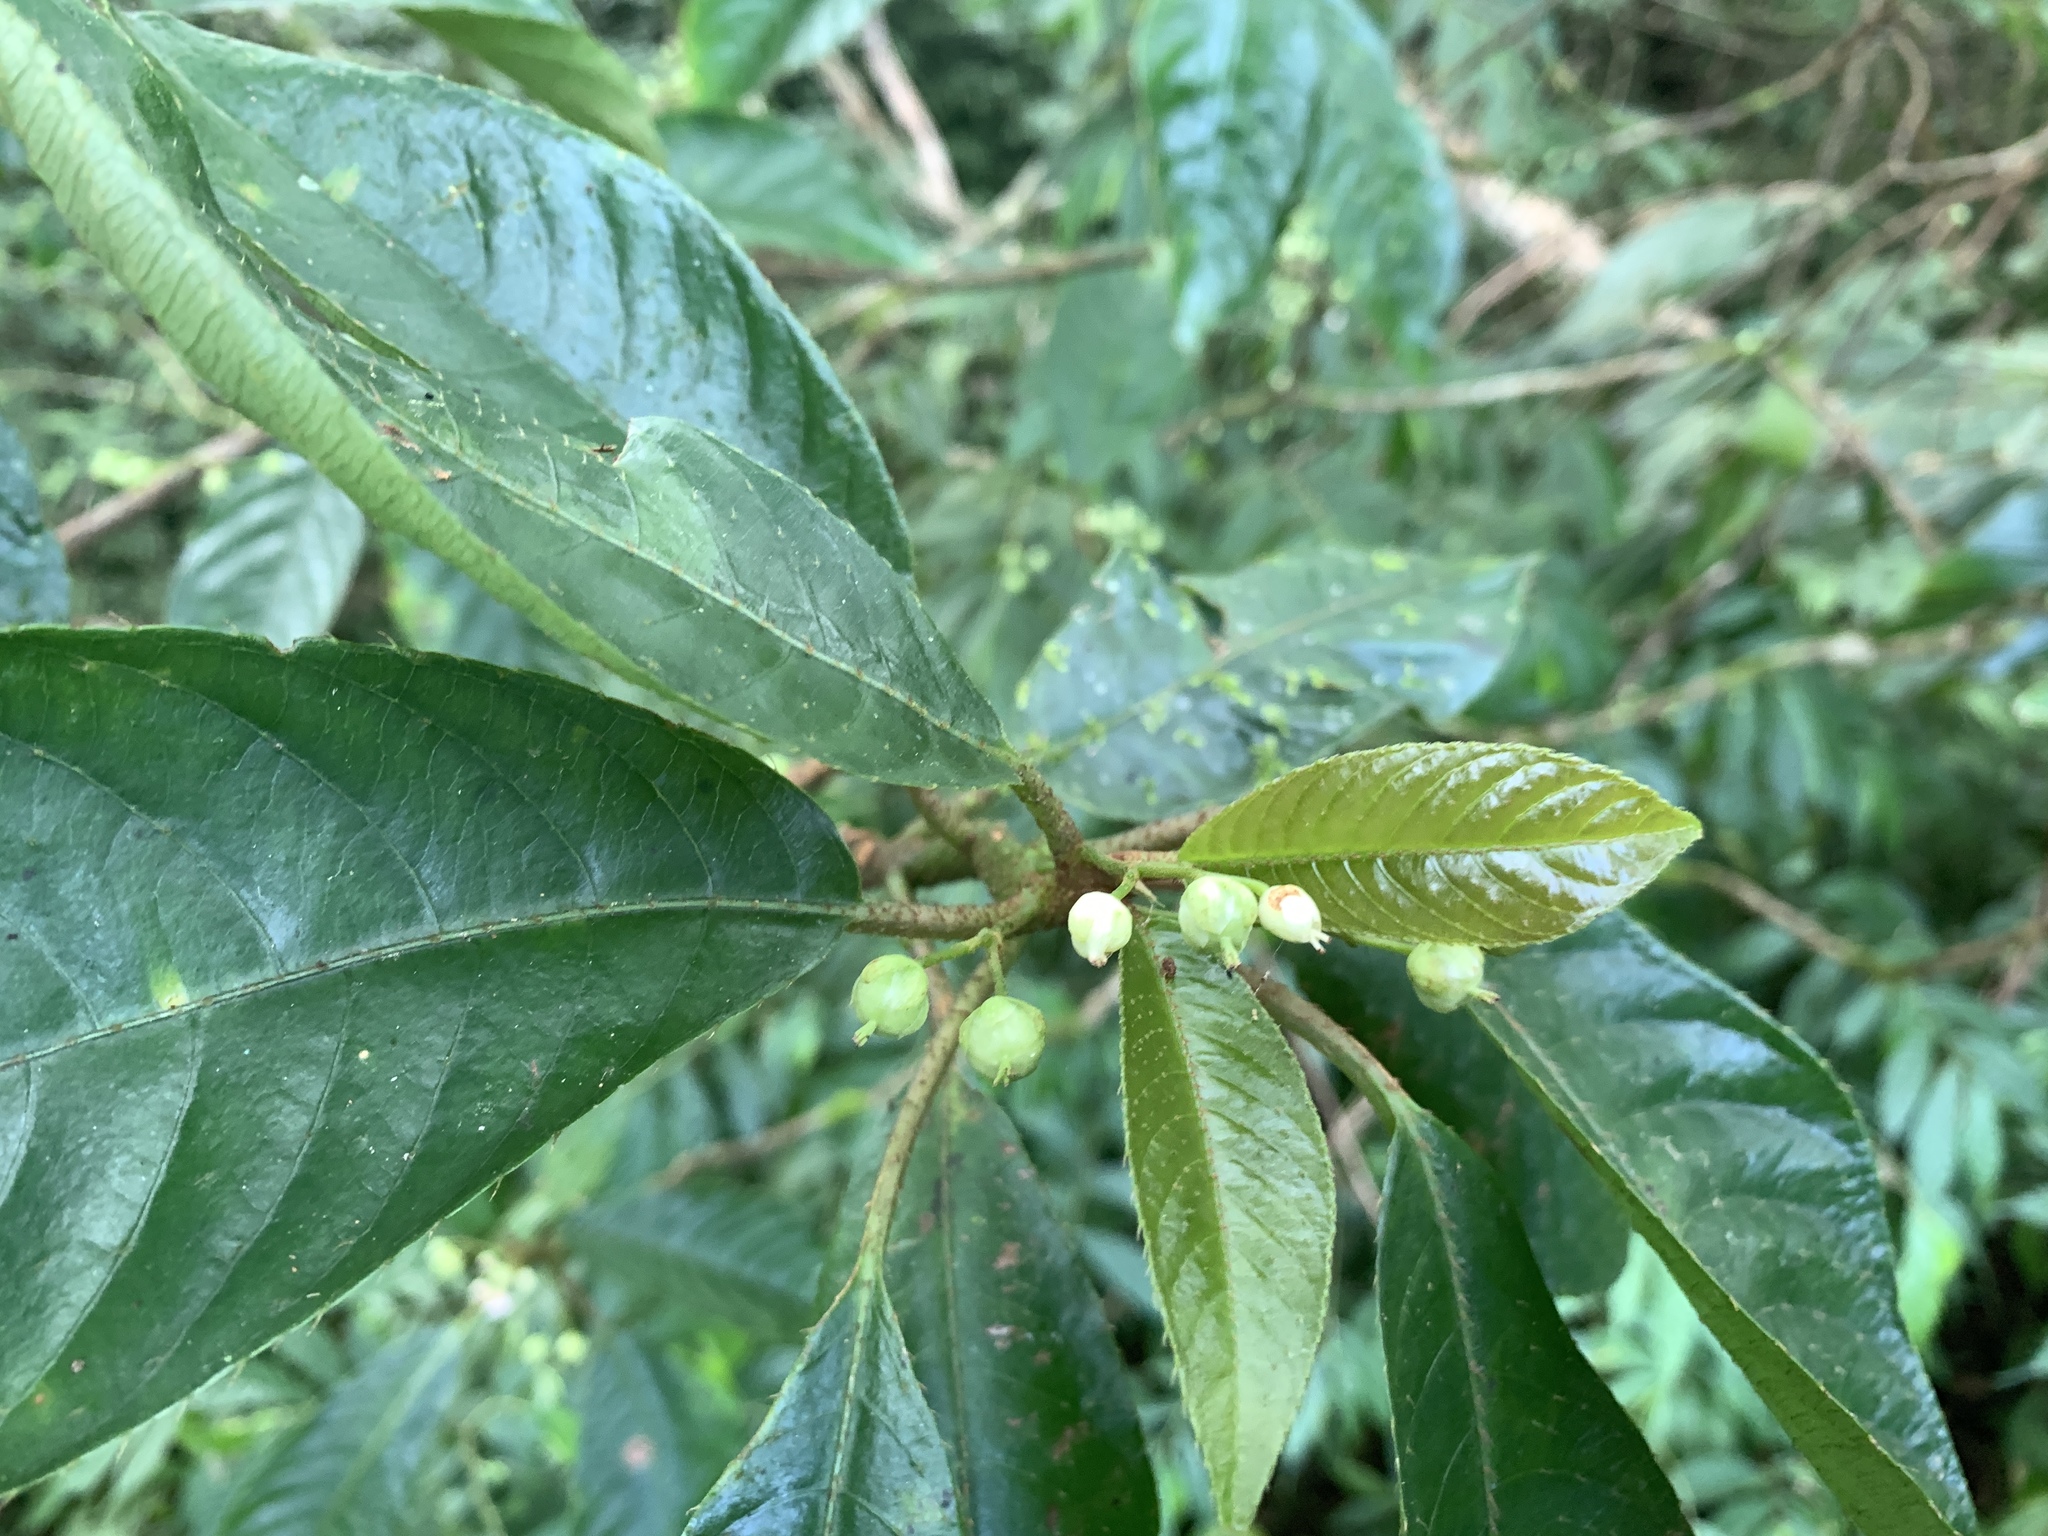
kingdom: Plantae
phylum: Tracheophyta
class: Magnoliopsida
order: Ericales
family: Actinidiaceae
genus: Saurauia
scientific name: Saurauia tristyla
